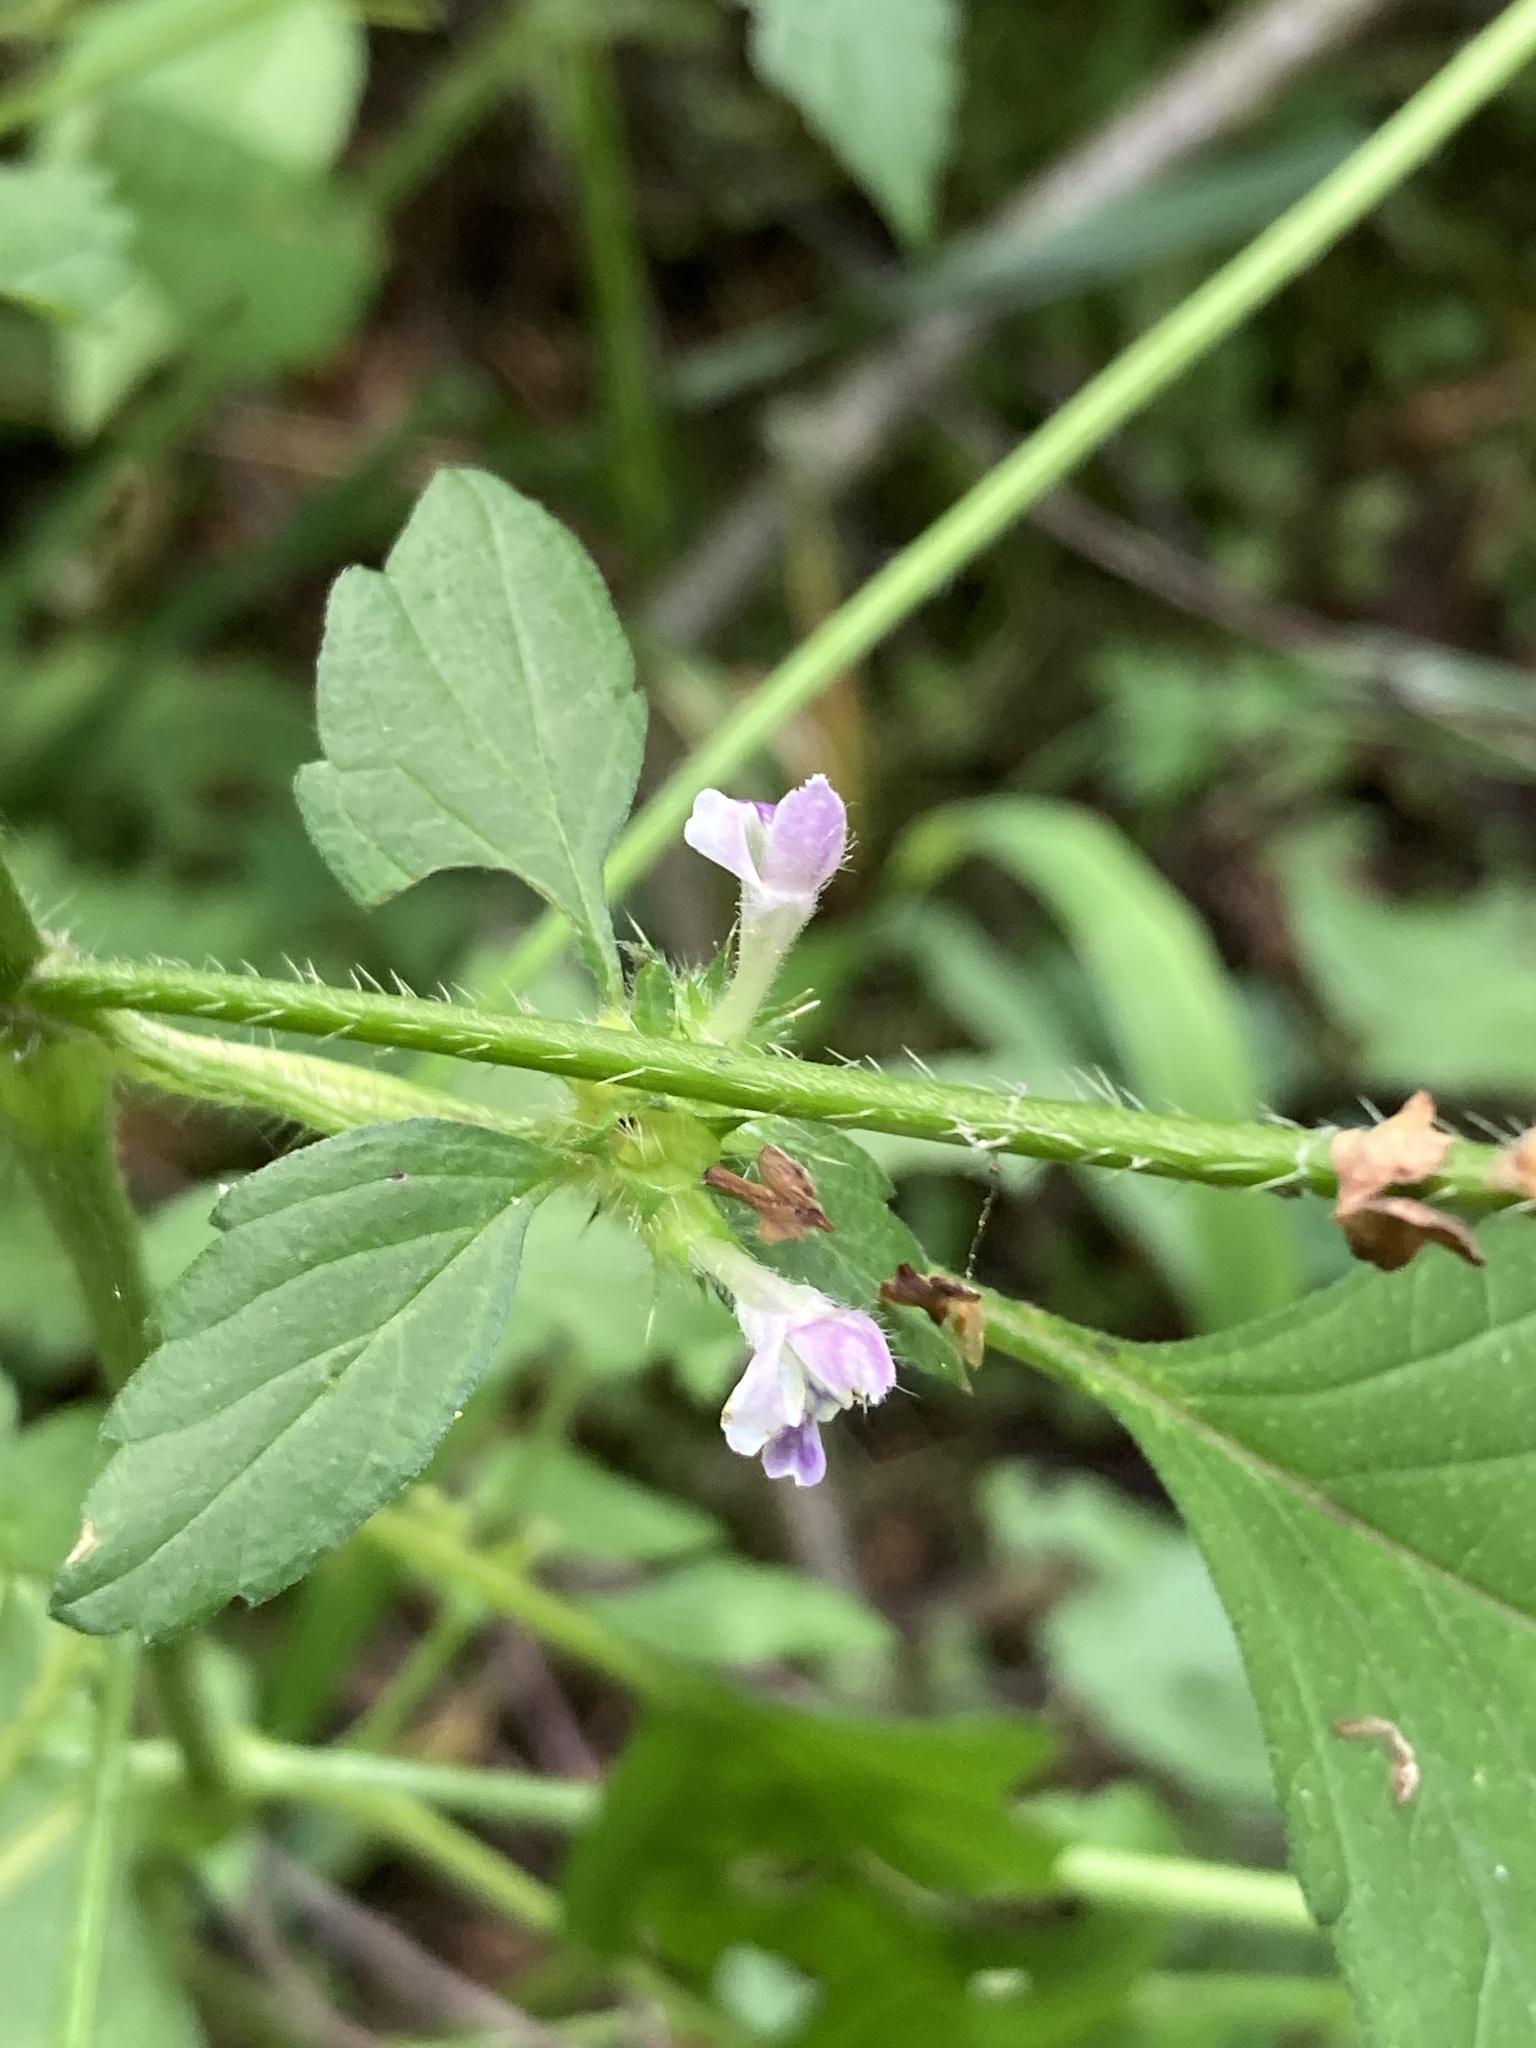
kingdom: Plantae
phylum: Tracheophyta
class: Magnoliopsida
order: Lamiales
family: Lamiaceae
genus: Galeopsis
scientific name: Galeopsis bifida
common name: Bifid hemp-nettle
